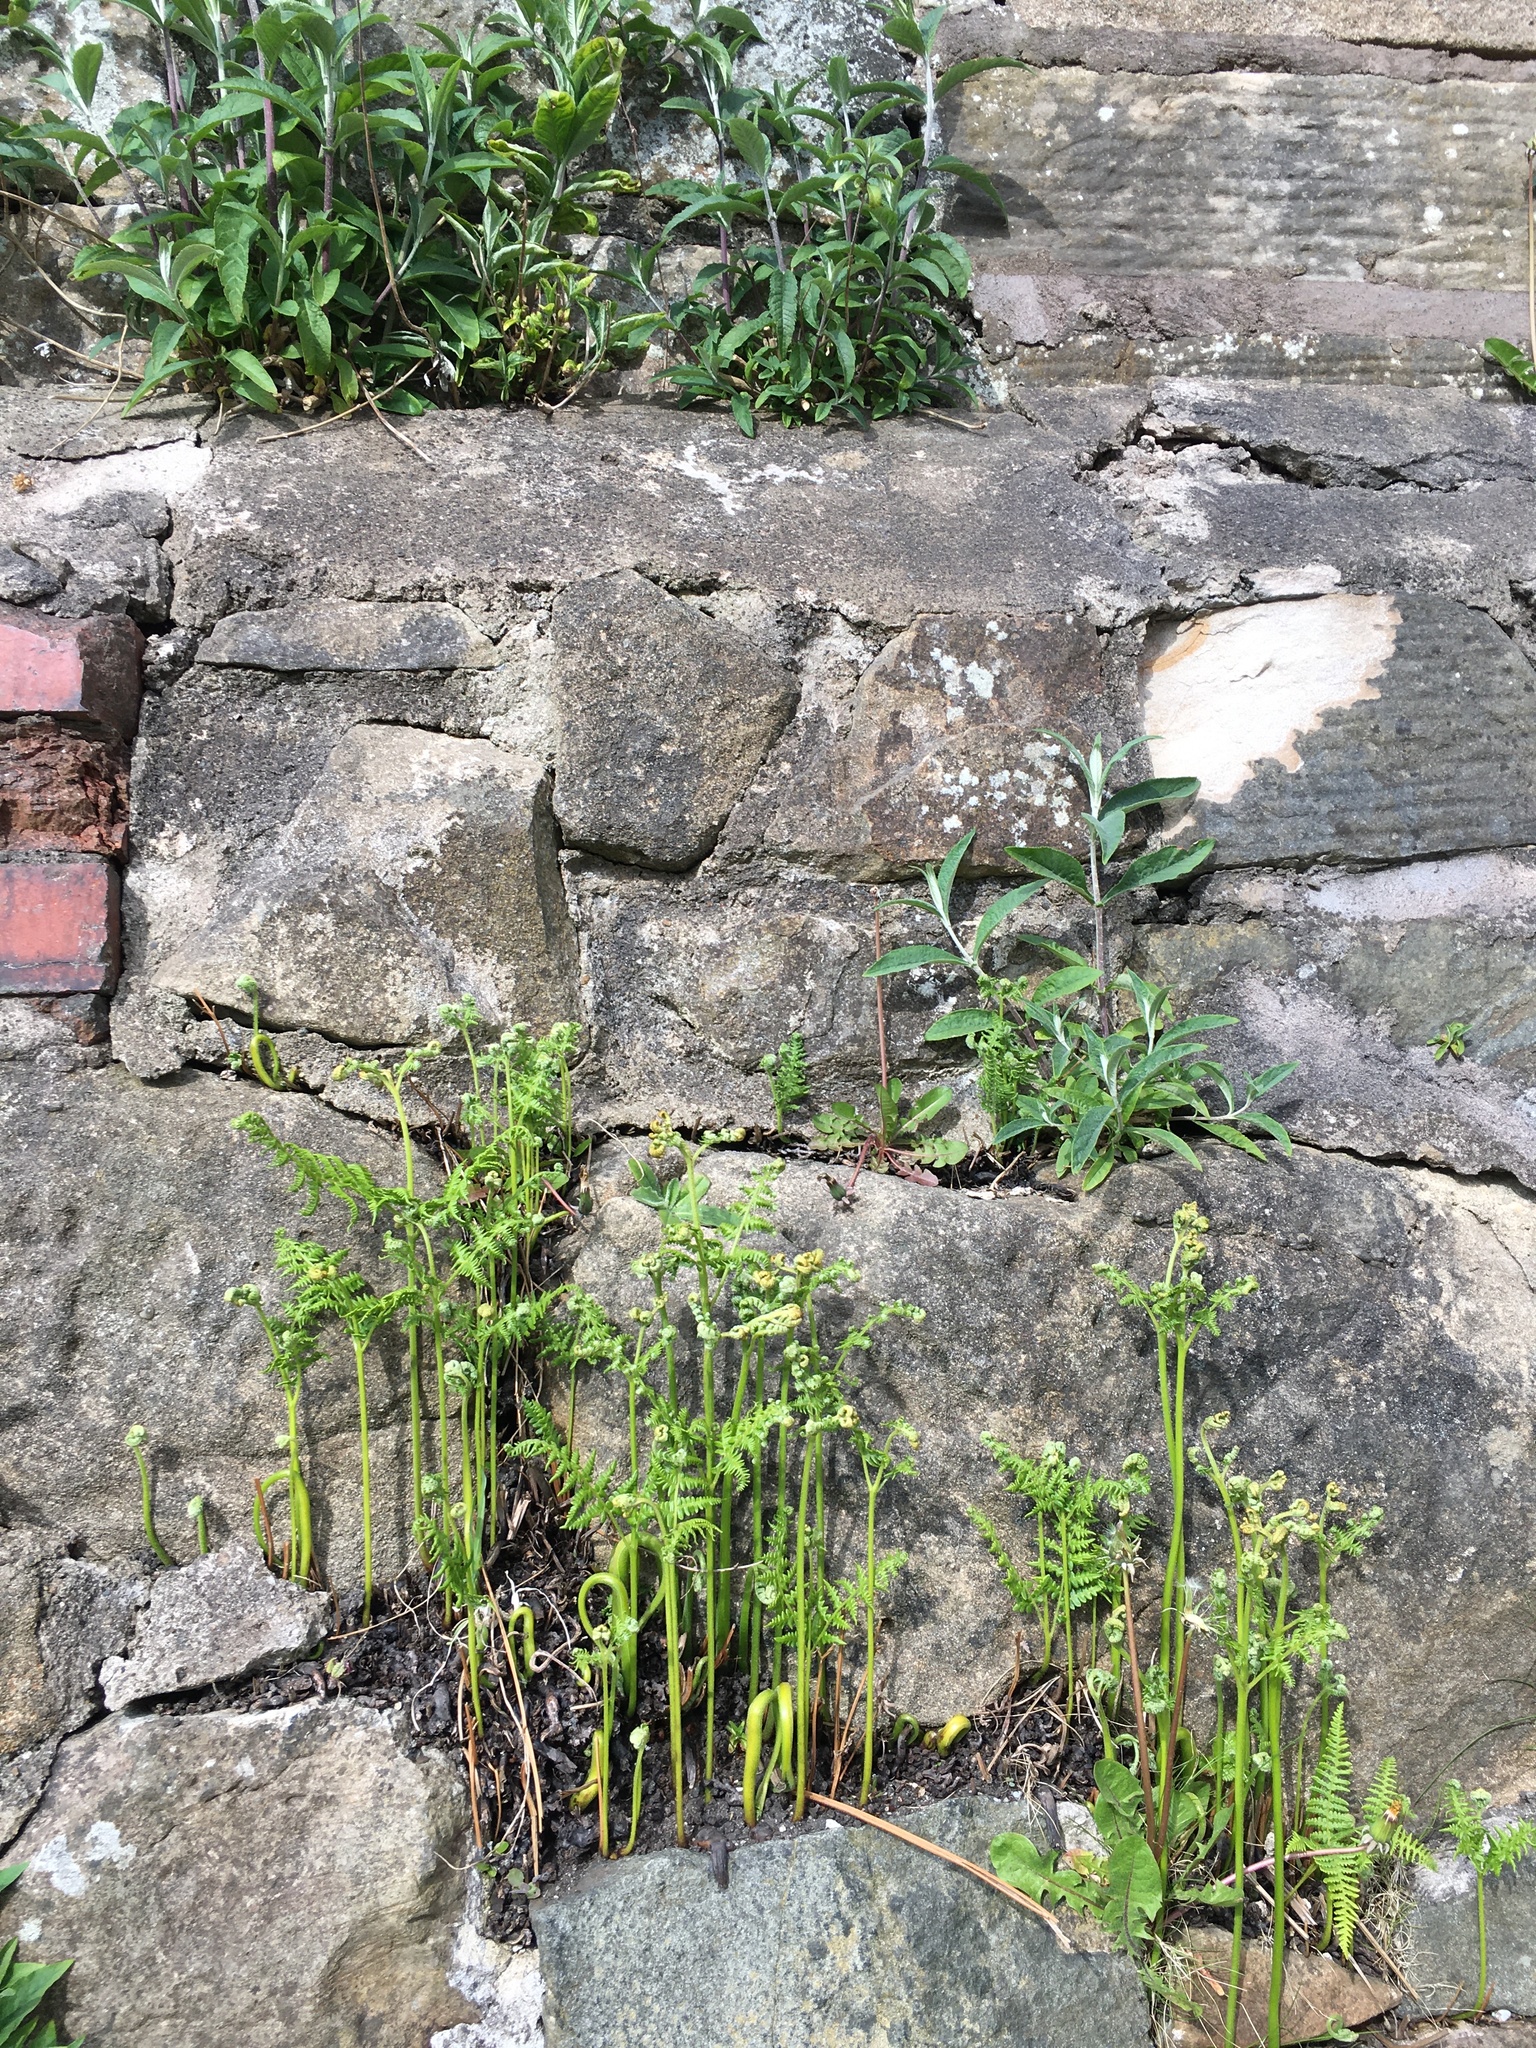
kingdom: Plantae
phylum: Tracheophyta
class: Polypodiopsida
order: Polypodiales
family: Dennstaedtiaceae
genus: Pteridium
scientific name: Pteridium aquilinum
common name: Bracken
